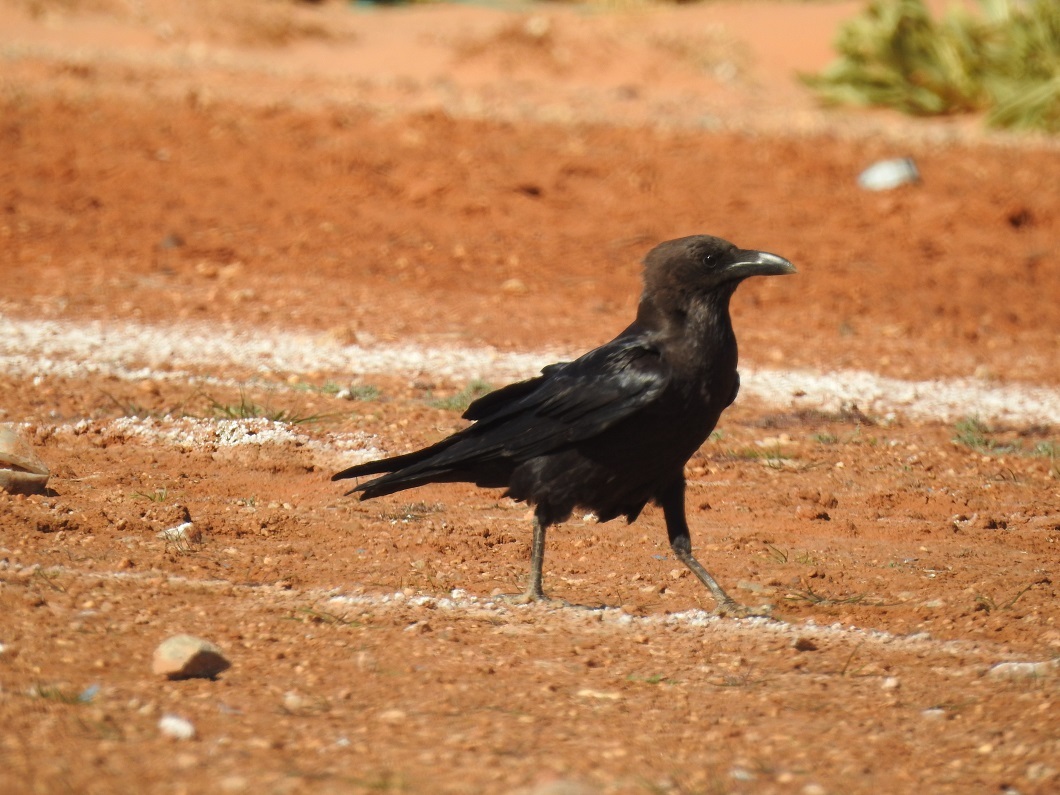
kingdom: Animalia
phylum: Chordata
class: Aves
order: Passeriformes
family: Corvidae
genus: Corvus
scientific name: Corvus ruficollis
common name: Brown-necked raven
